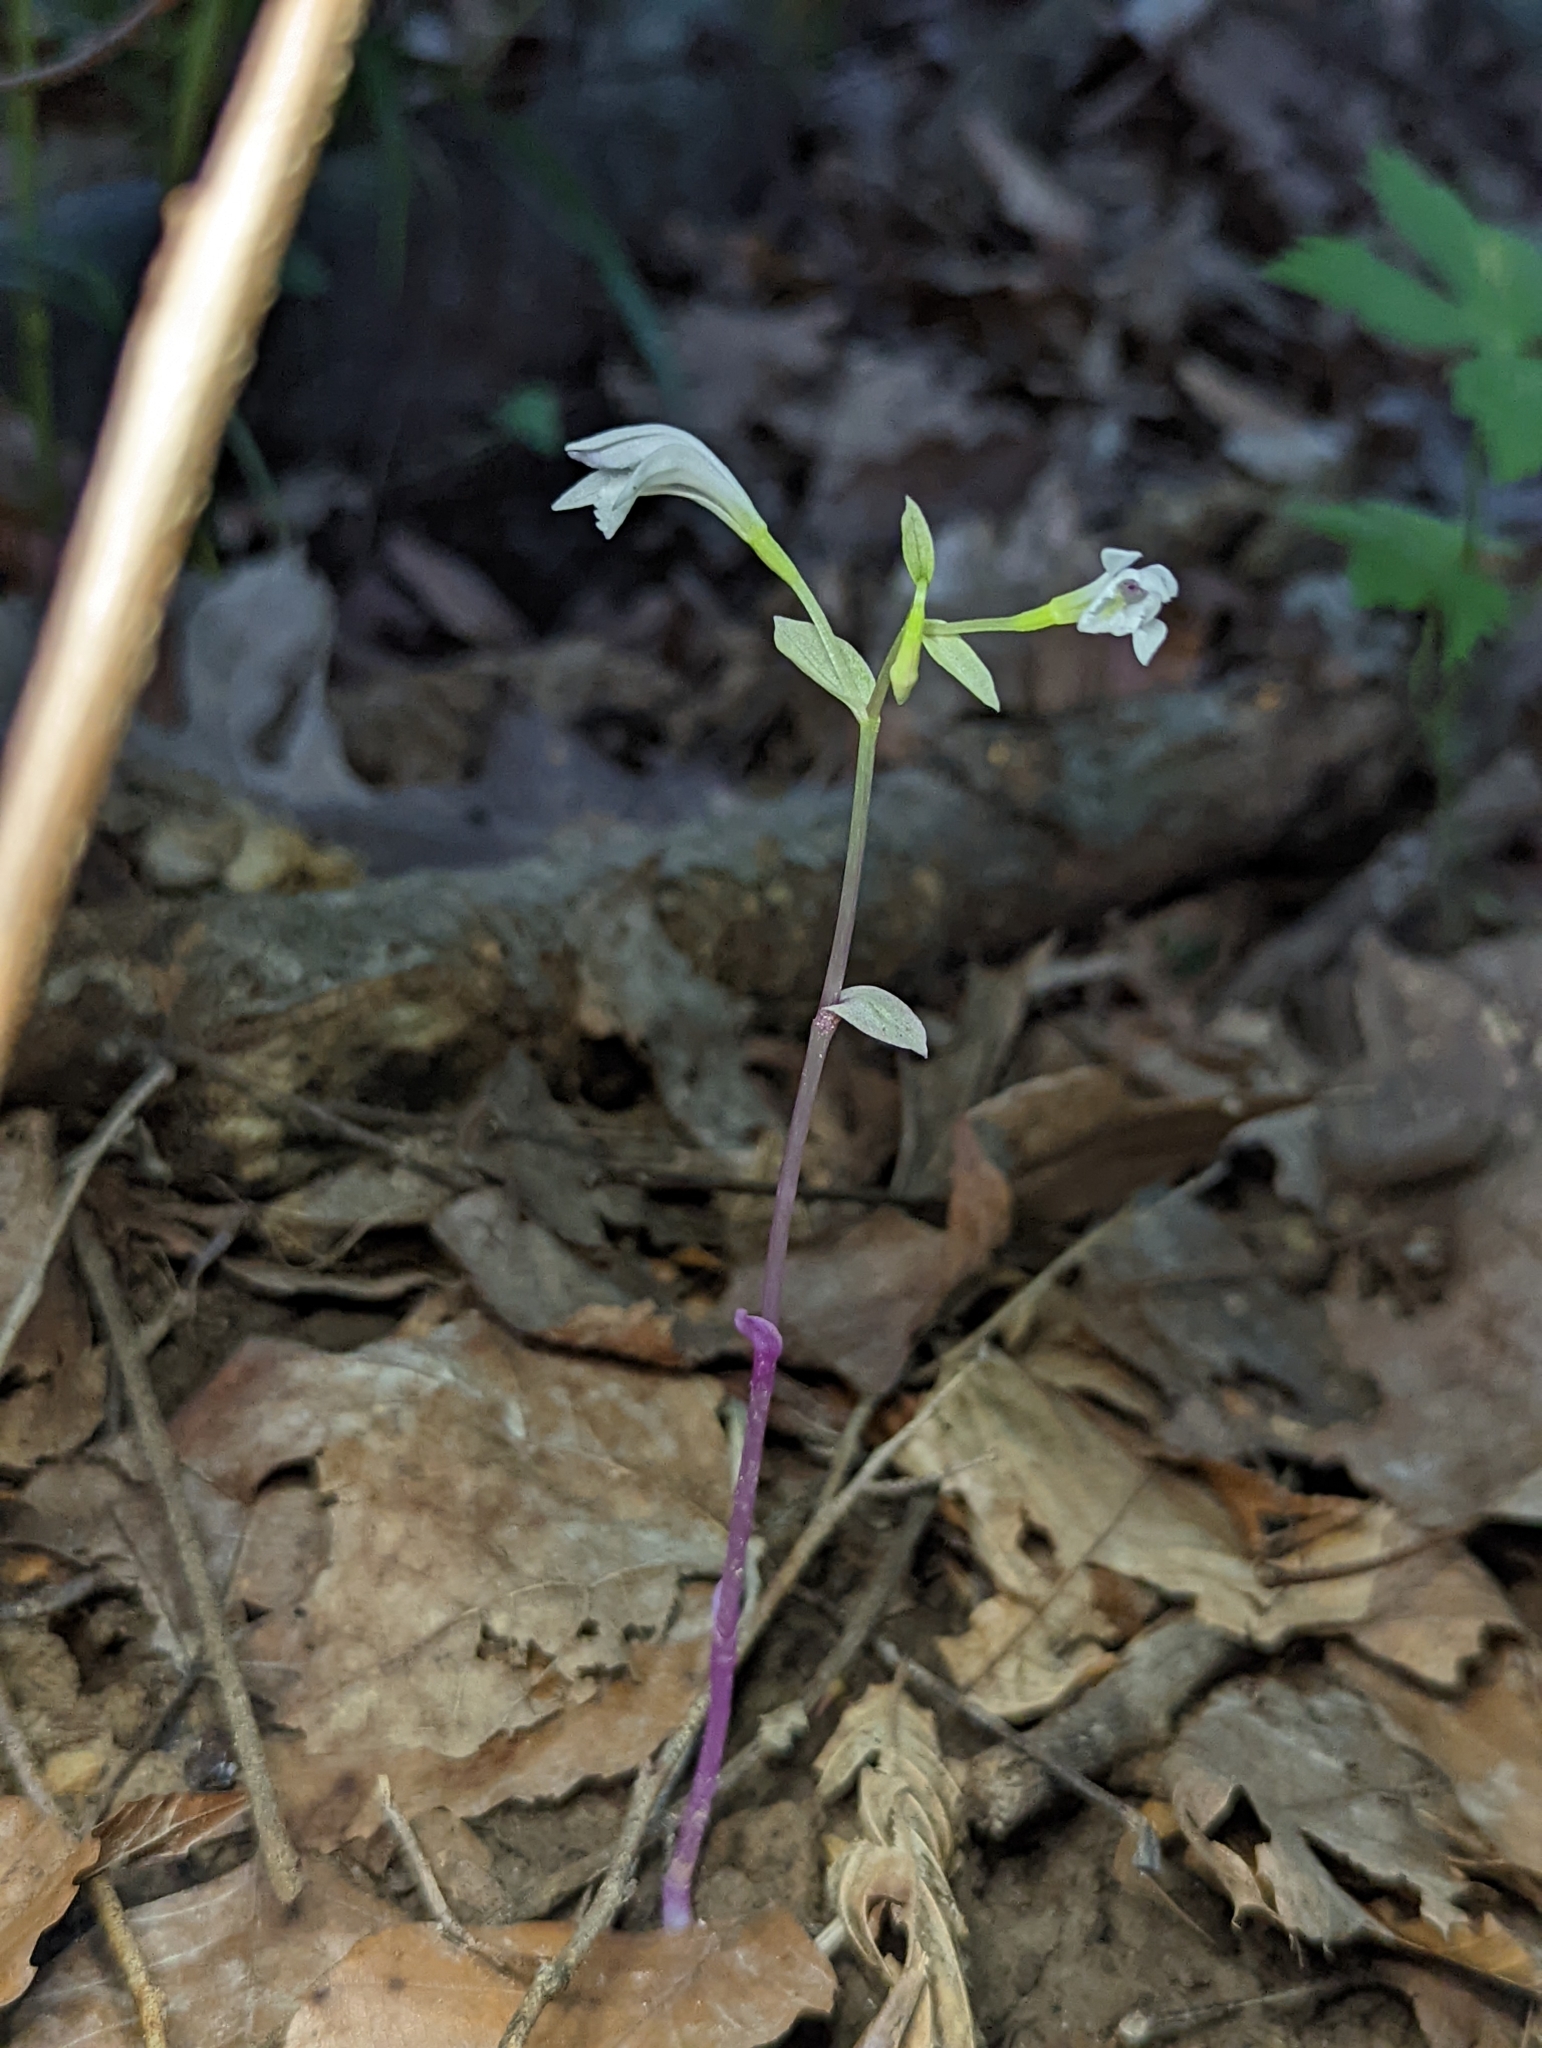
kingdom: Plantae
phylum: Tracheophyta
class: Liliopsida
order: Asparagales
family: Orchidaceae
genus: Triphora
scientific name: Triphora trianthophoros
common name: Three birds orchid
